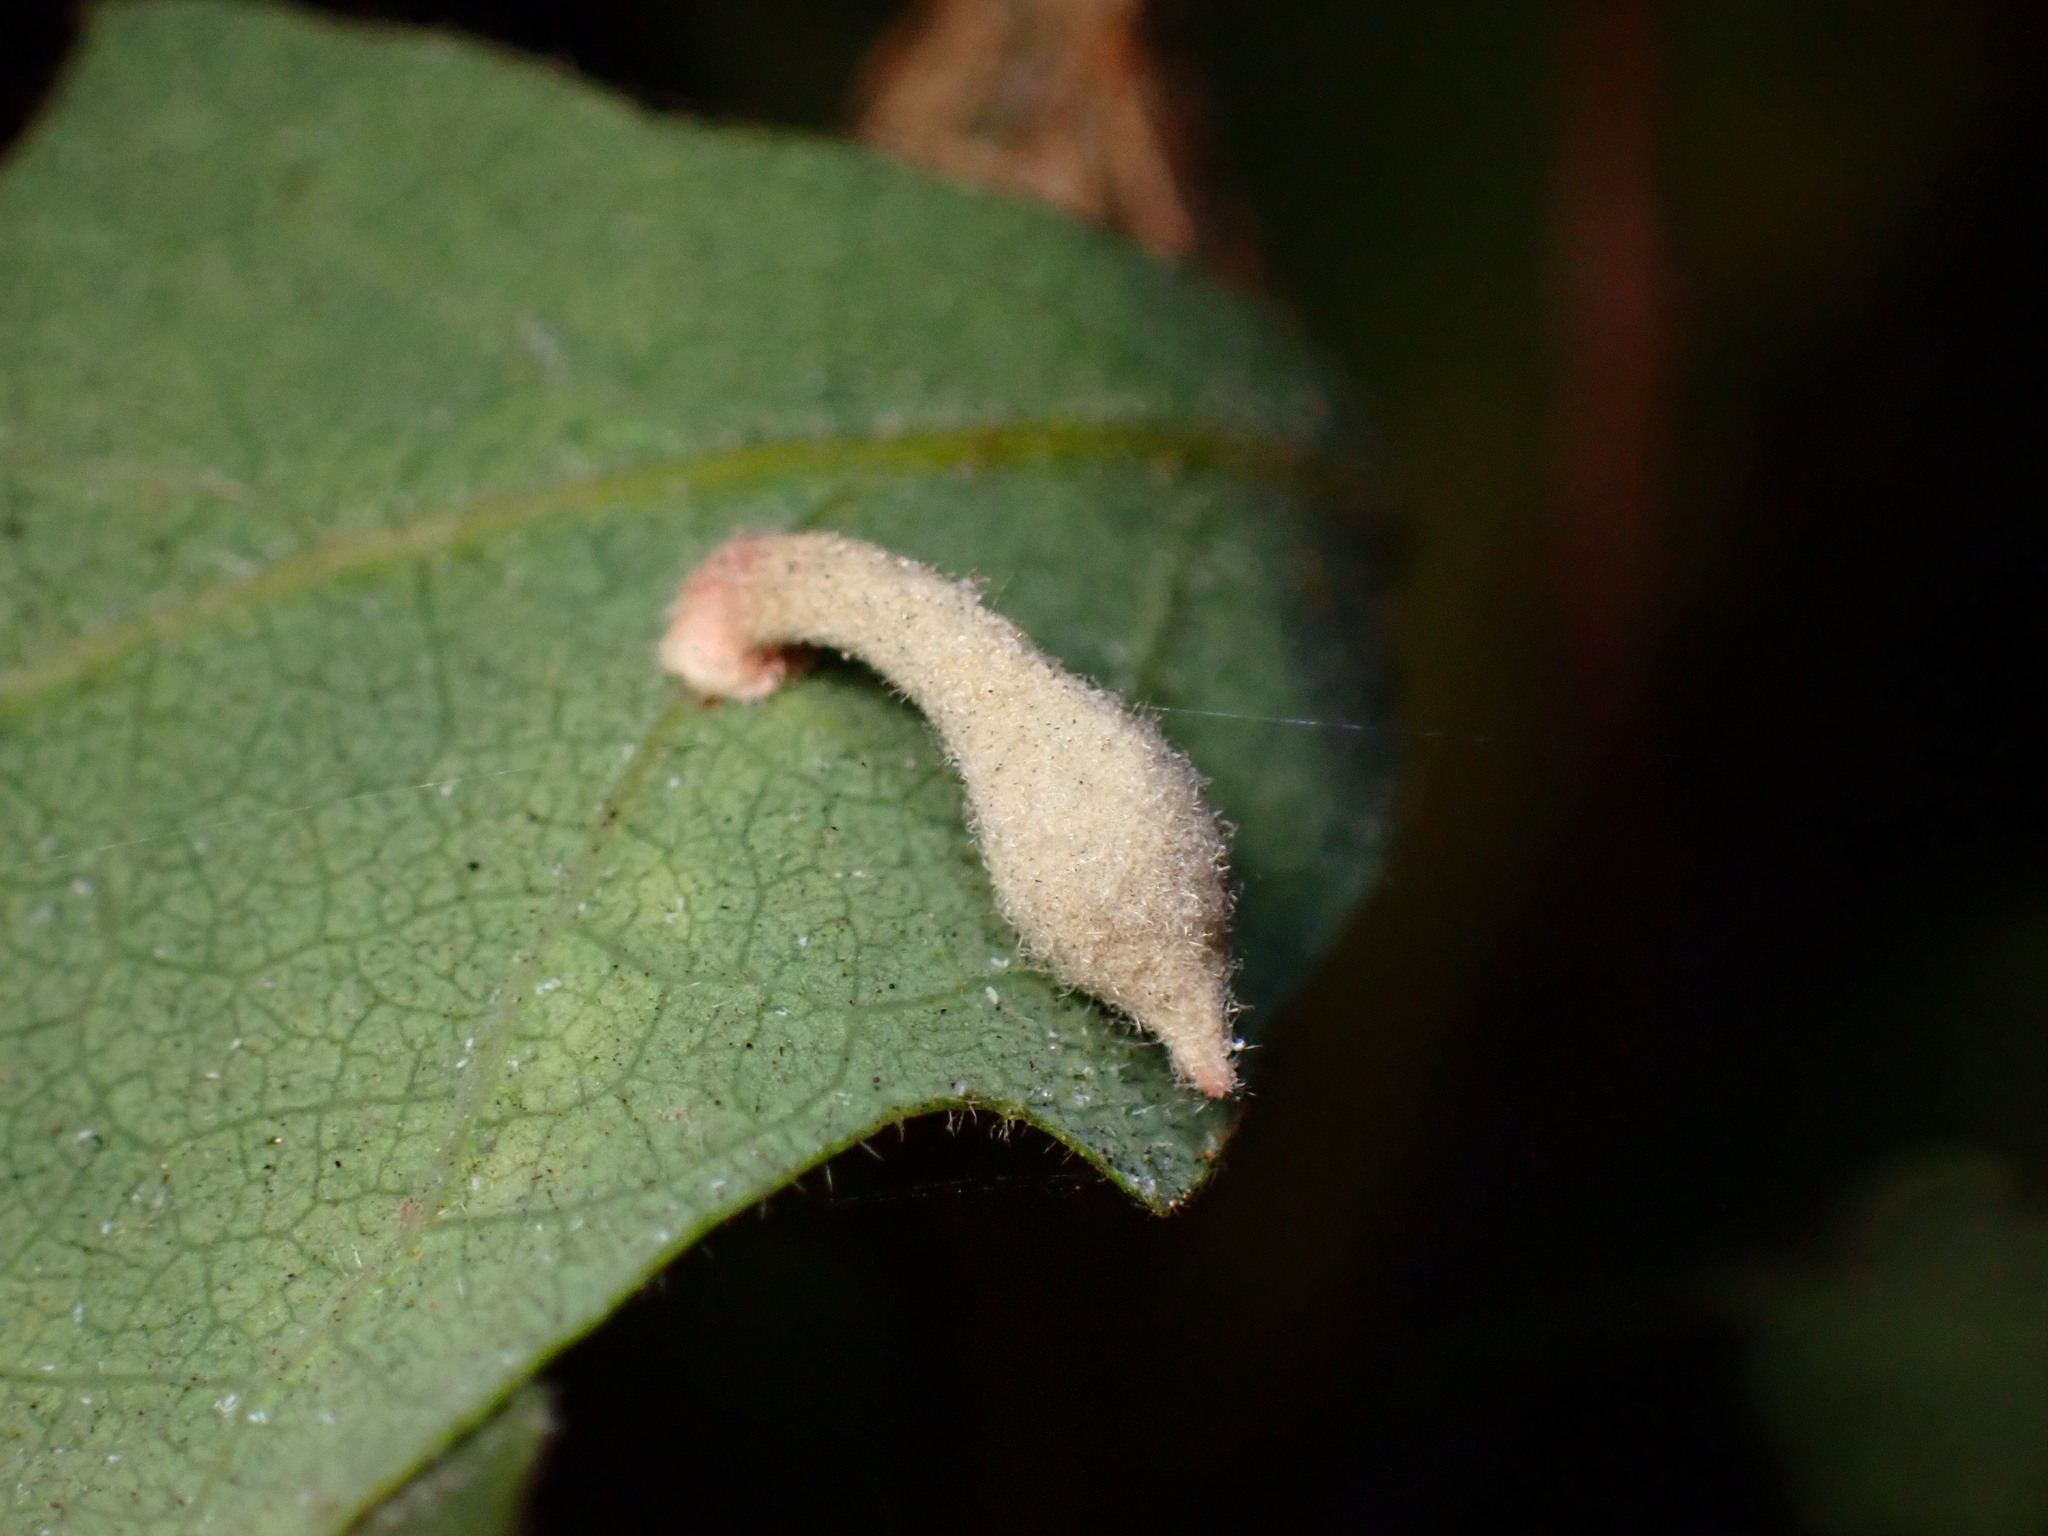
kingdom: Animalia
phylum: Arthropoda
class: Insecta
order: Hymenoptera
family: Cynipidae
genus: Atrusca
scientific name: Atrusca
